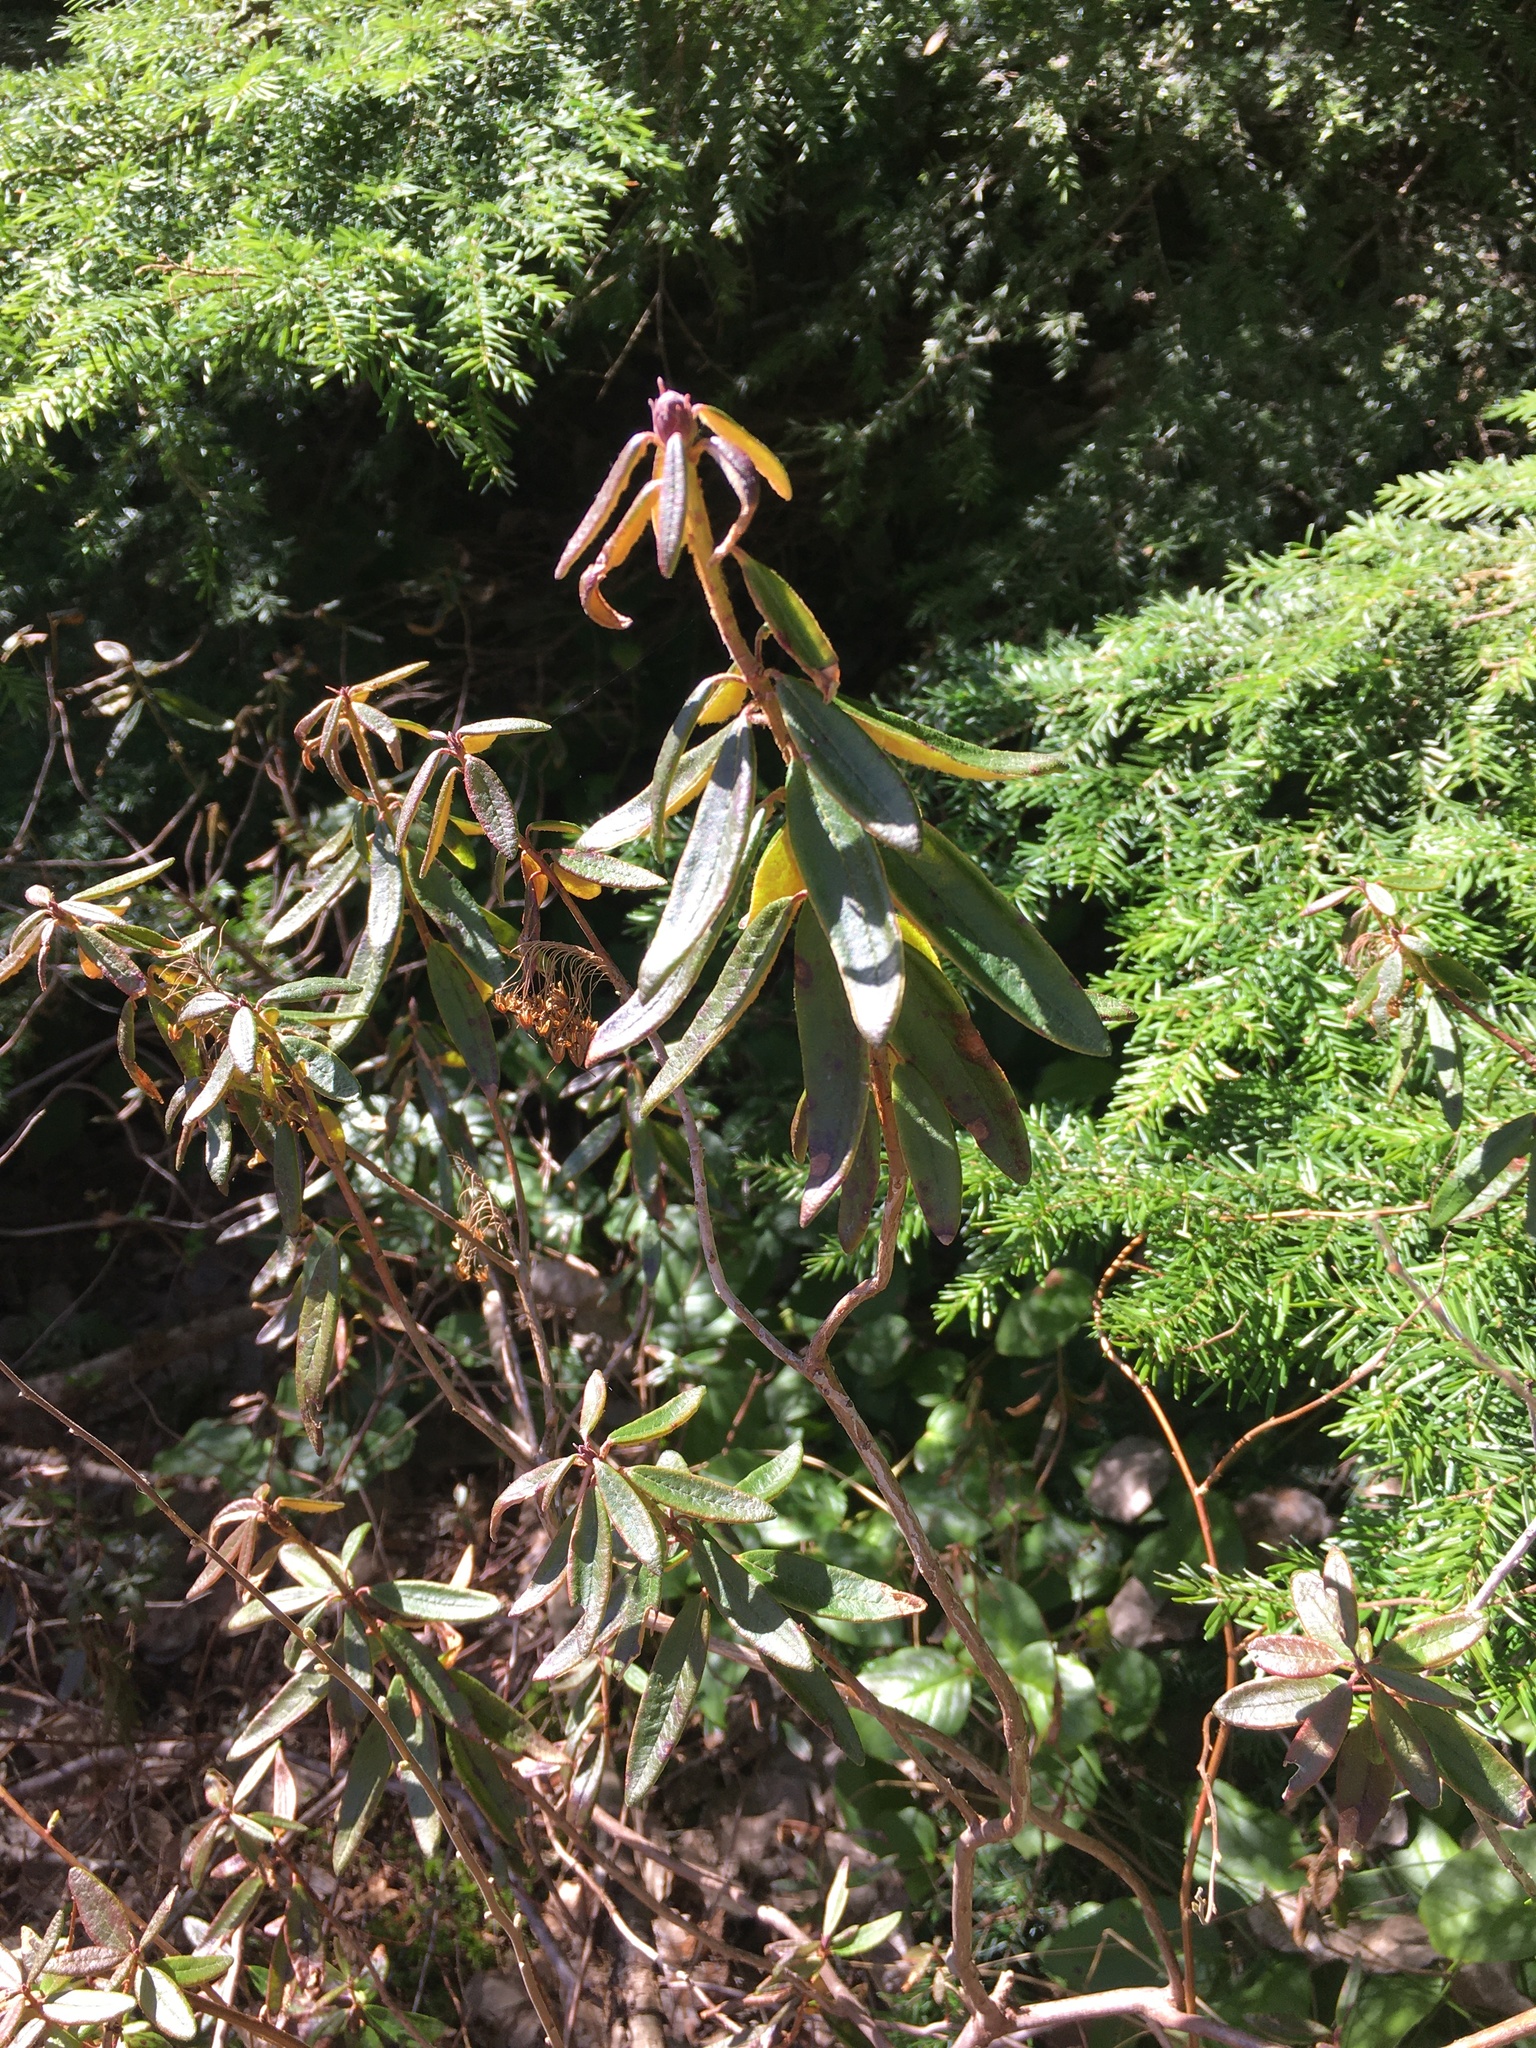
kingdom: Plantae
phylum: Tracheophyta
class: Magnoliopsida
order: Ericales
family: Ericaceae
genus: Rhododendron
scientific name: Rhododendron groenlandicum
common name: Bog labrador tea
